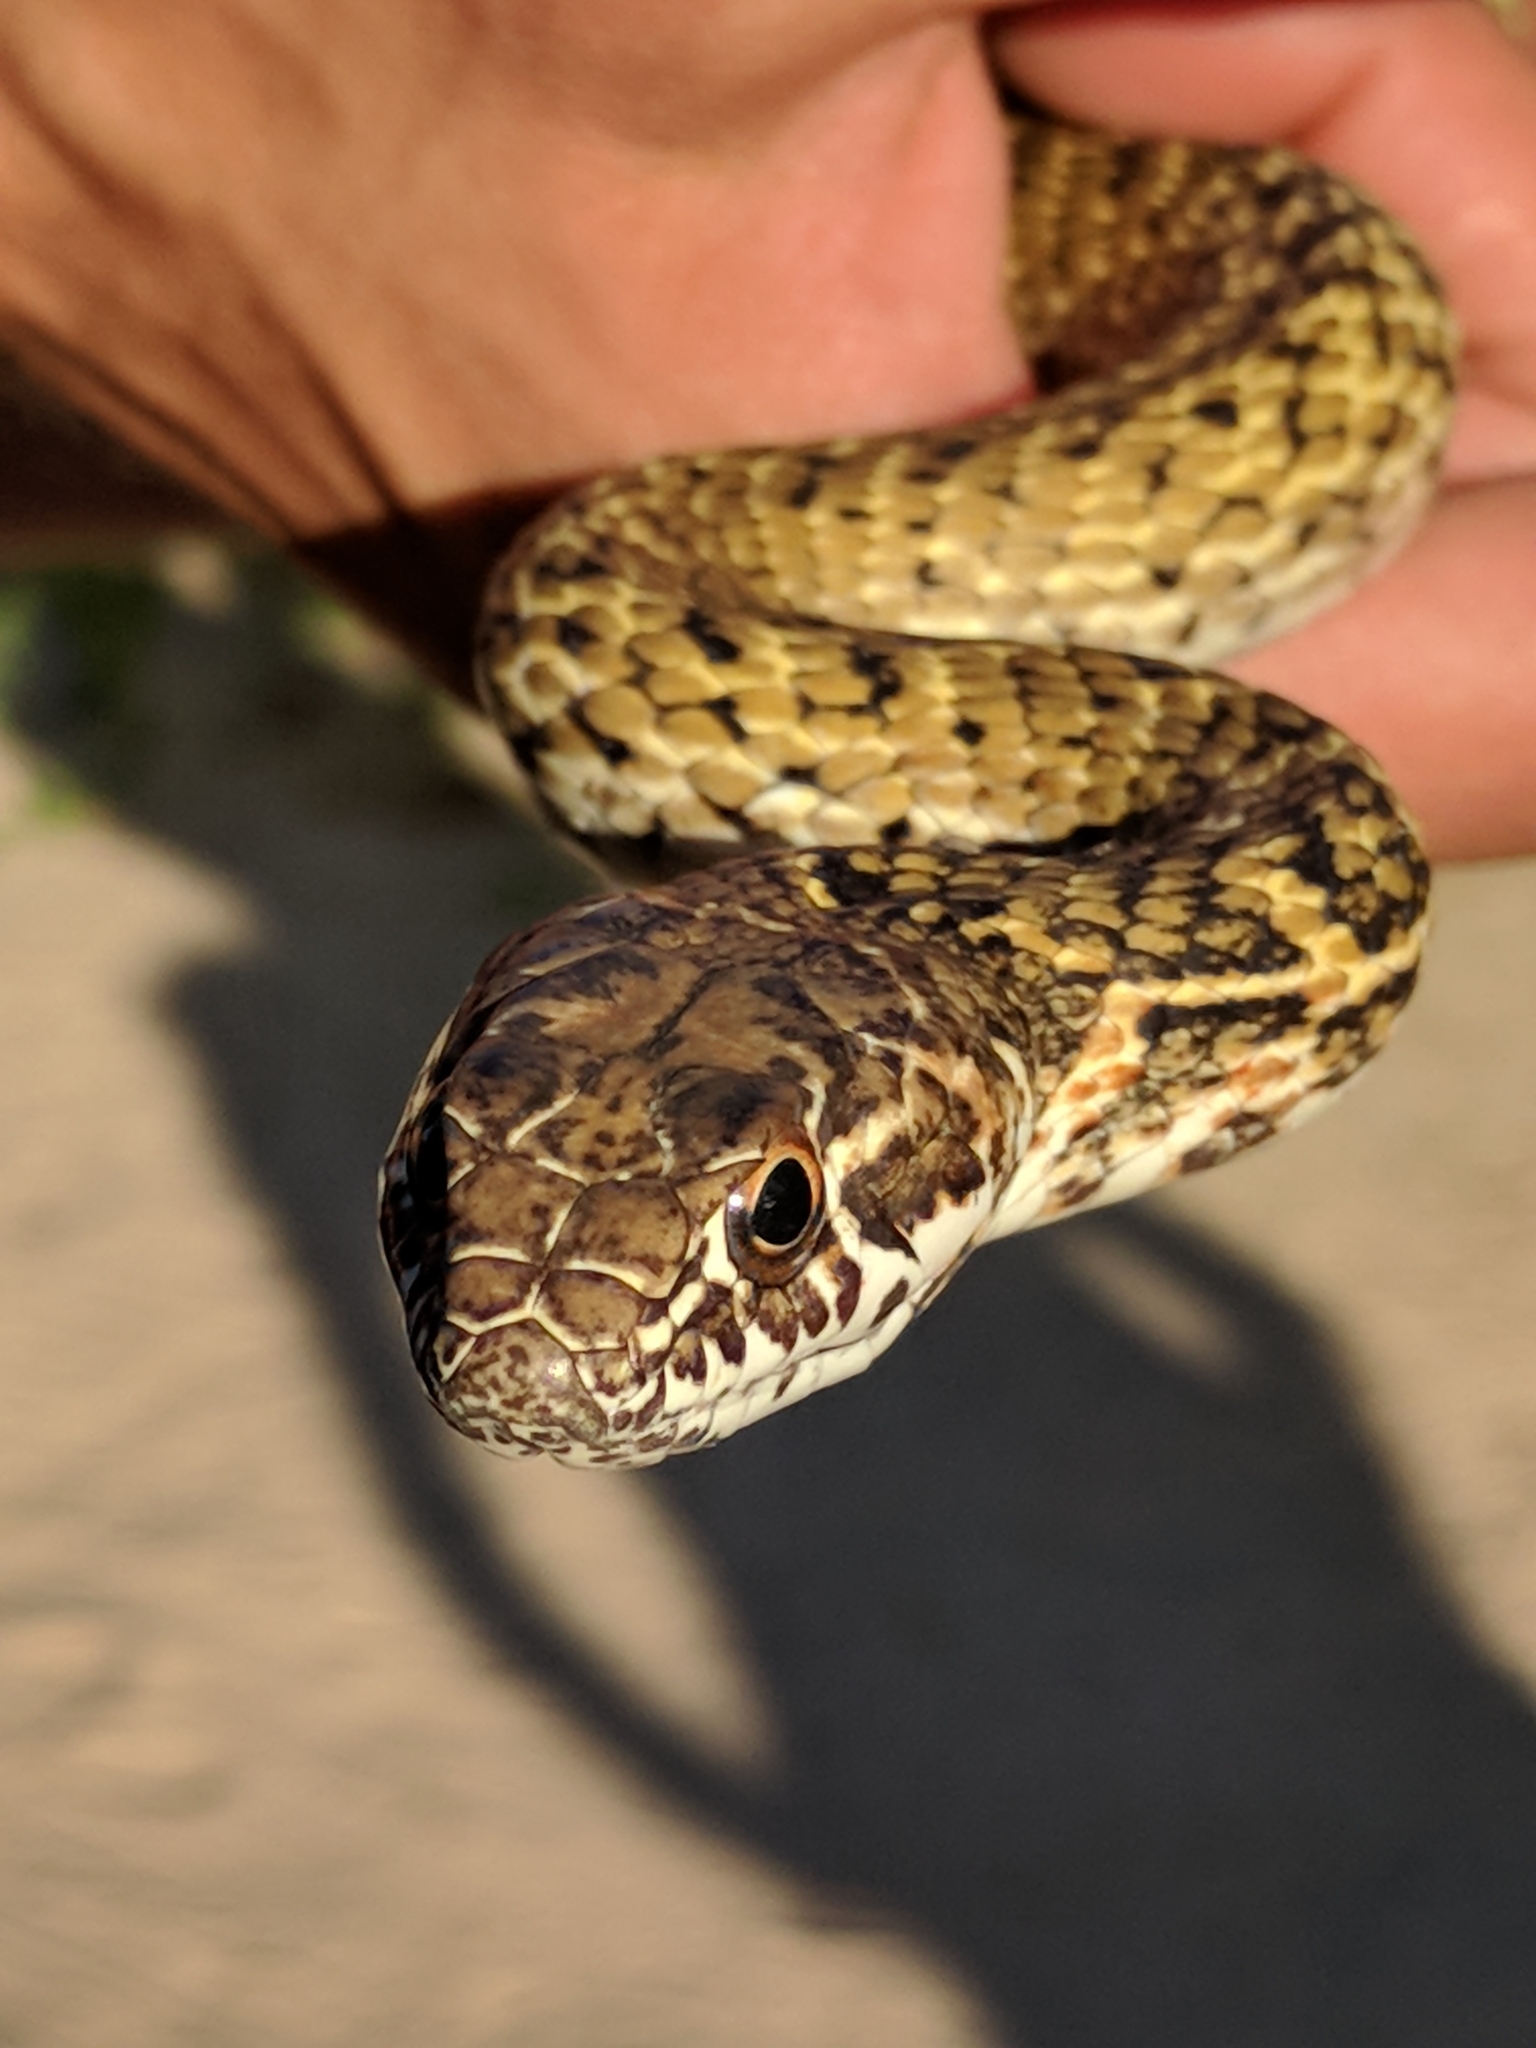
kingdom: Animalia
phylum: Chordata
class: Squamata
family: Colubridae
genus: Masticophis
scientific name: Masticophis fuliginosus
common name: Baja california coachwhip
